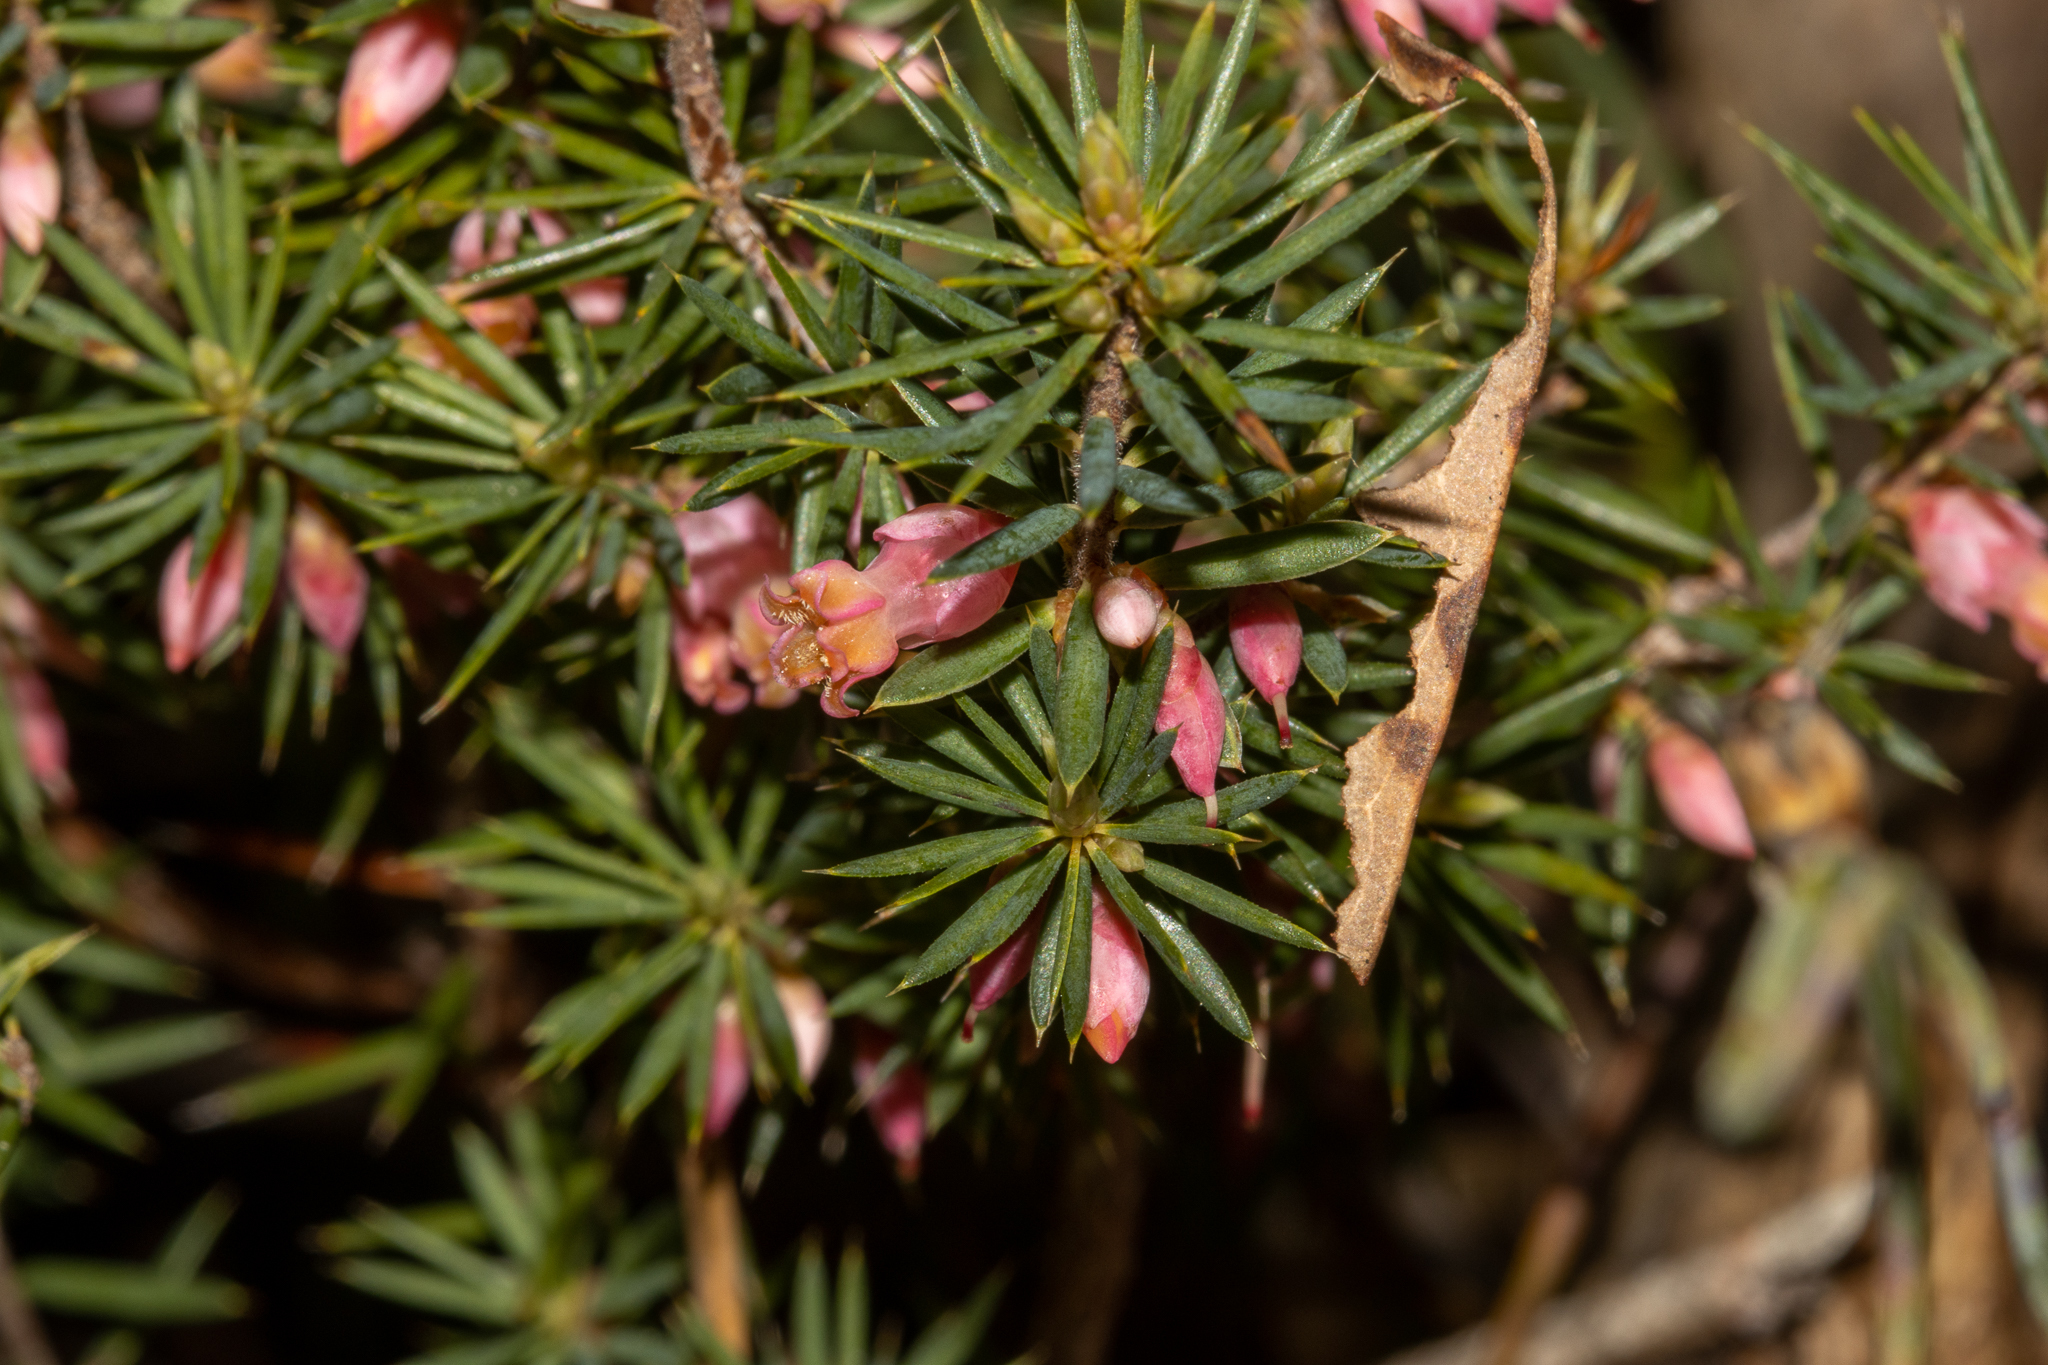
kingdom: Plantae
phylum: Tracheophyta
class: Magnoliopsida
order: Ericales
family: Ericaceae
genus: Brachyloma
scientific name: Brachyloma ericoides
